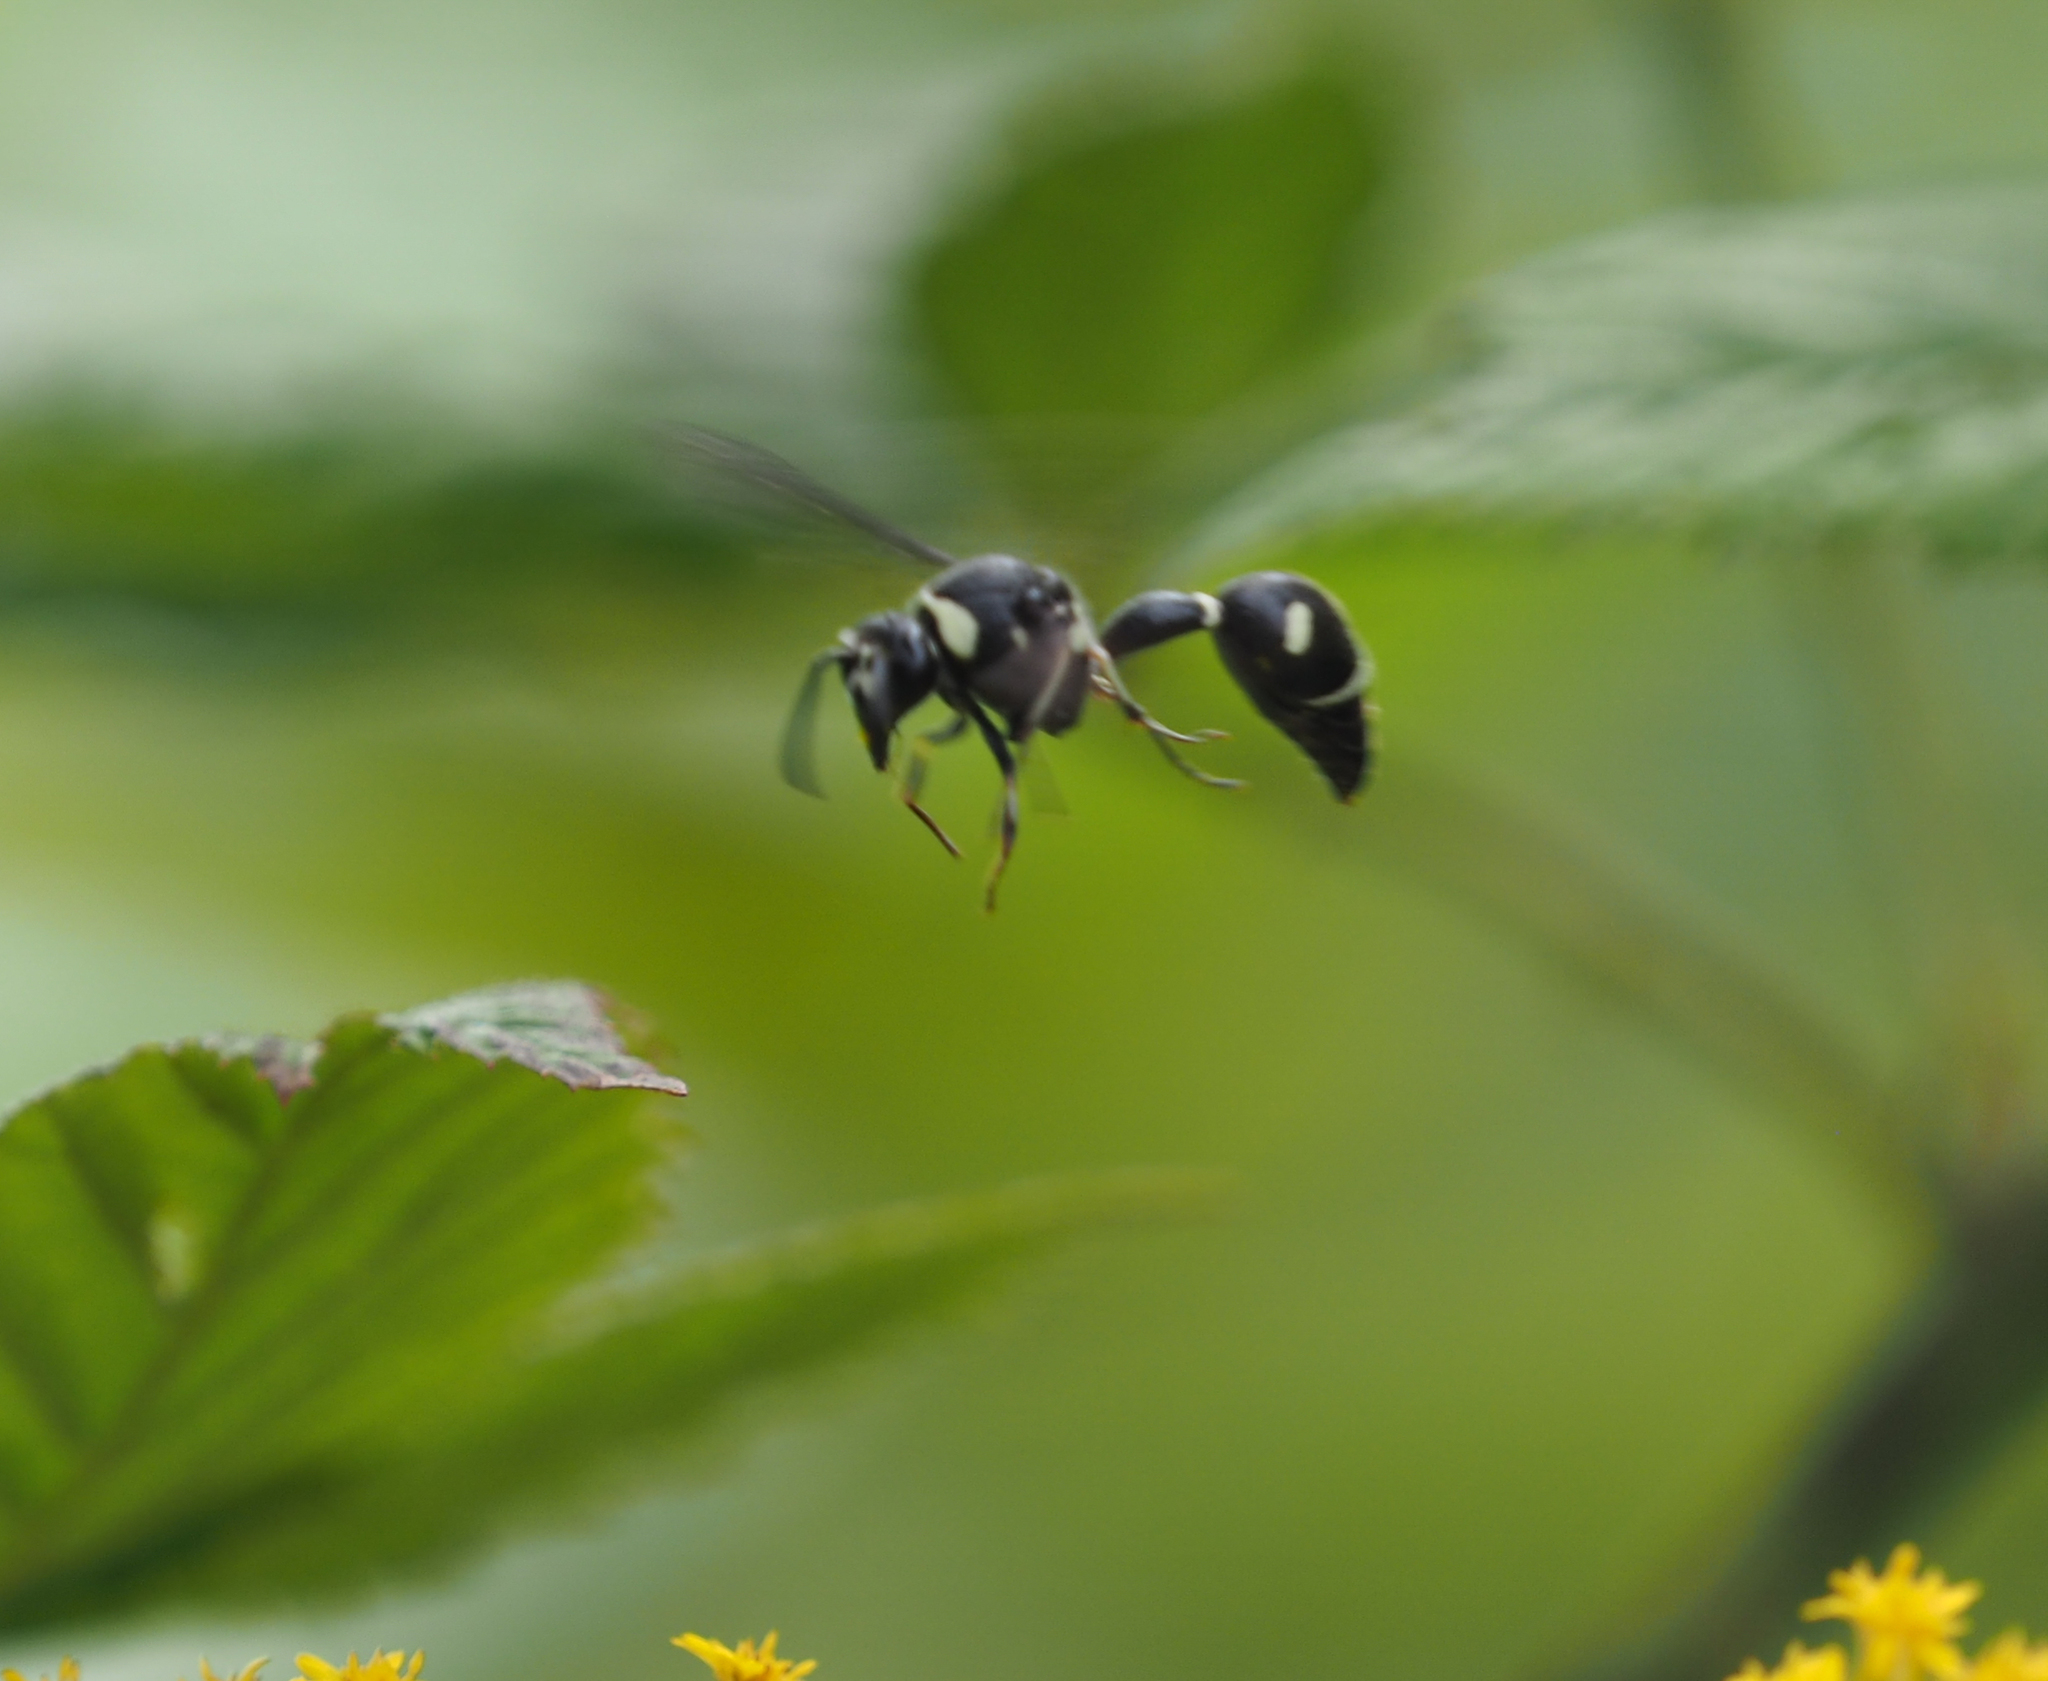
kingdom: Animalia
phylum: Arthropoda
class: Insecta
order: Hymenoptera
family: Vespidae
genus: Eumenes
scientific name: Eumenes fraternus
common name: Fraternal potter wasp
